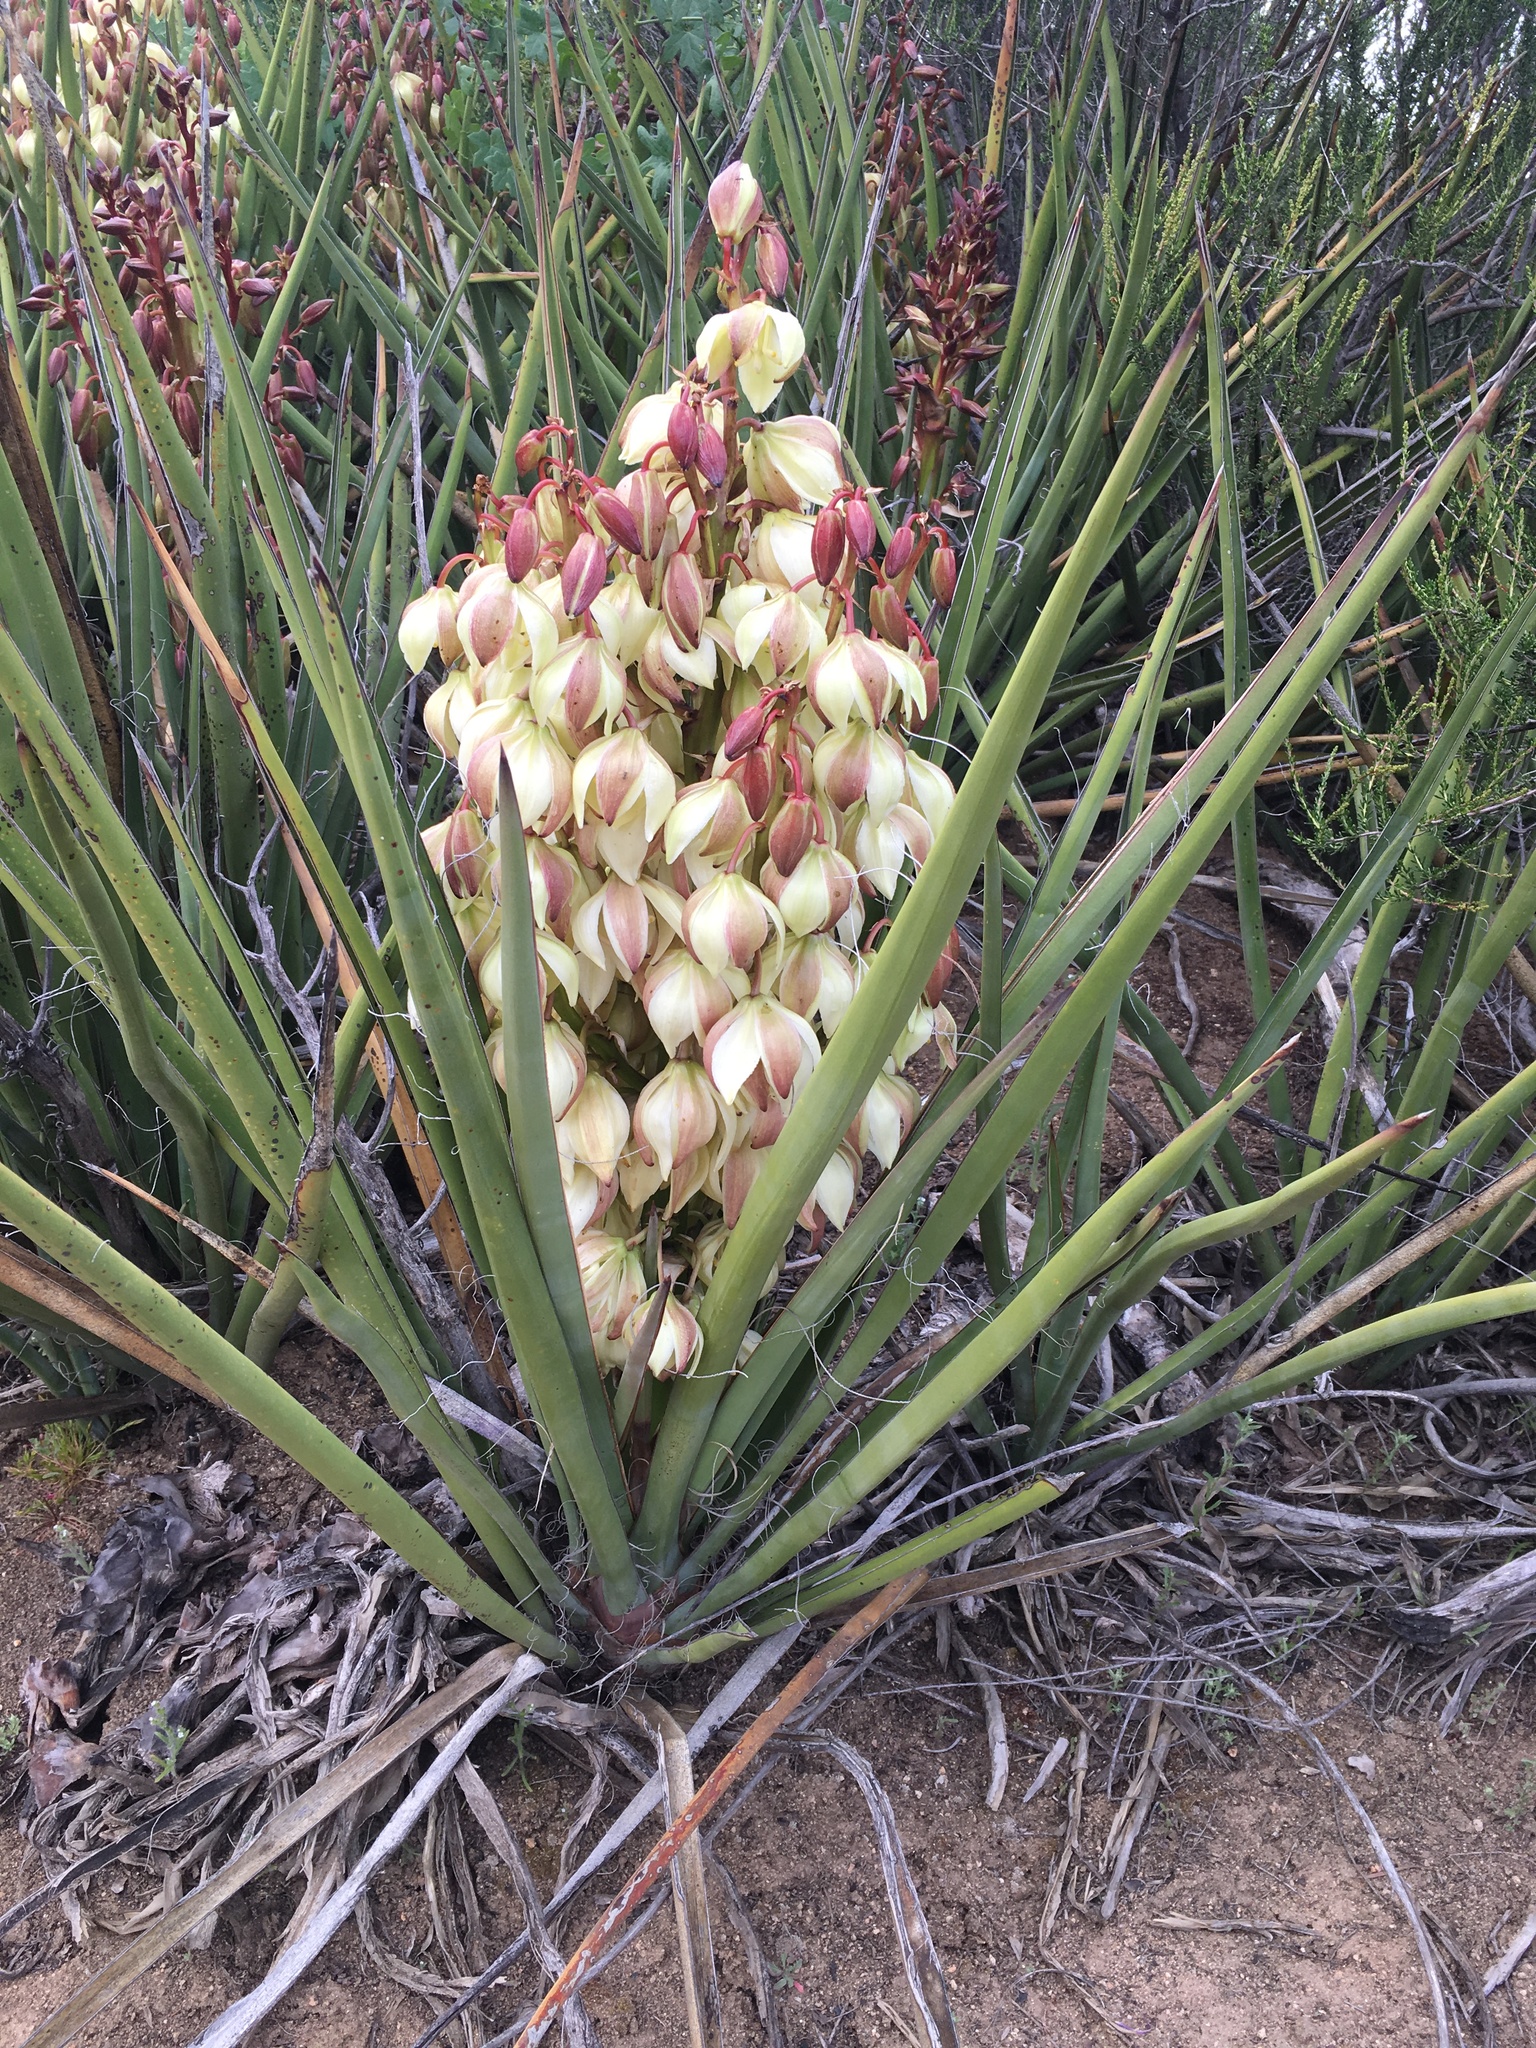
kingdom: Plantae
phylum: Tracheophyta
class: Liliopsida
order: Asparagales
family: Asparagaceae
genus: Yucca
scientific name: Yucca schidigera
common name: Mojave yucca
